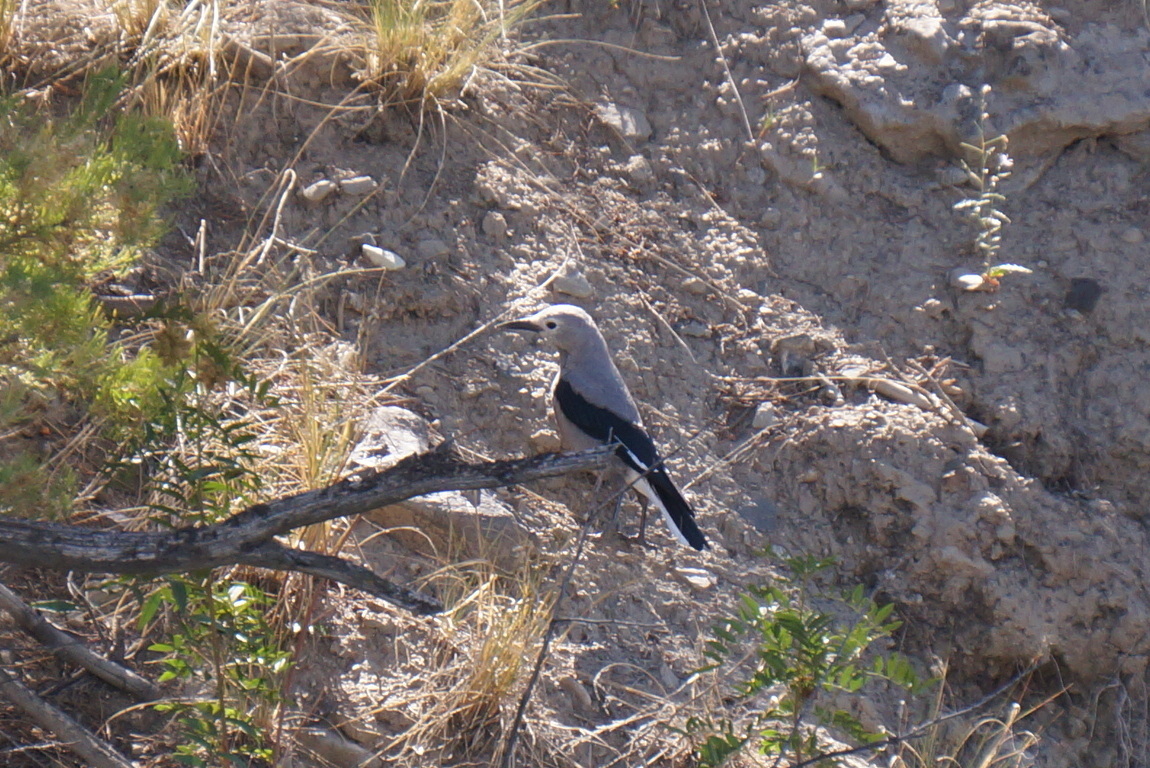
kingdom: Animalia
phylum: Chordata
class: Aves
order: Passeriformes
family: Corvidae
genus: Nucifraga
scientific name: Nucifraga columbiana
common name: Clark's nutcracker
